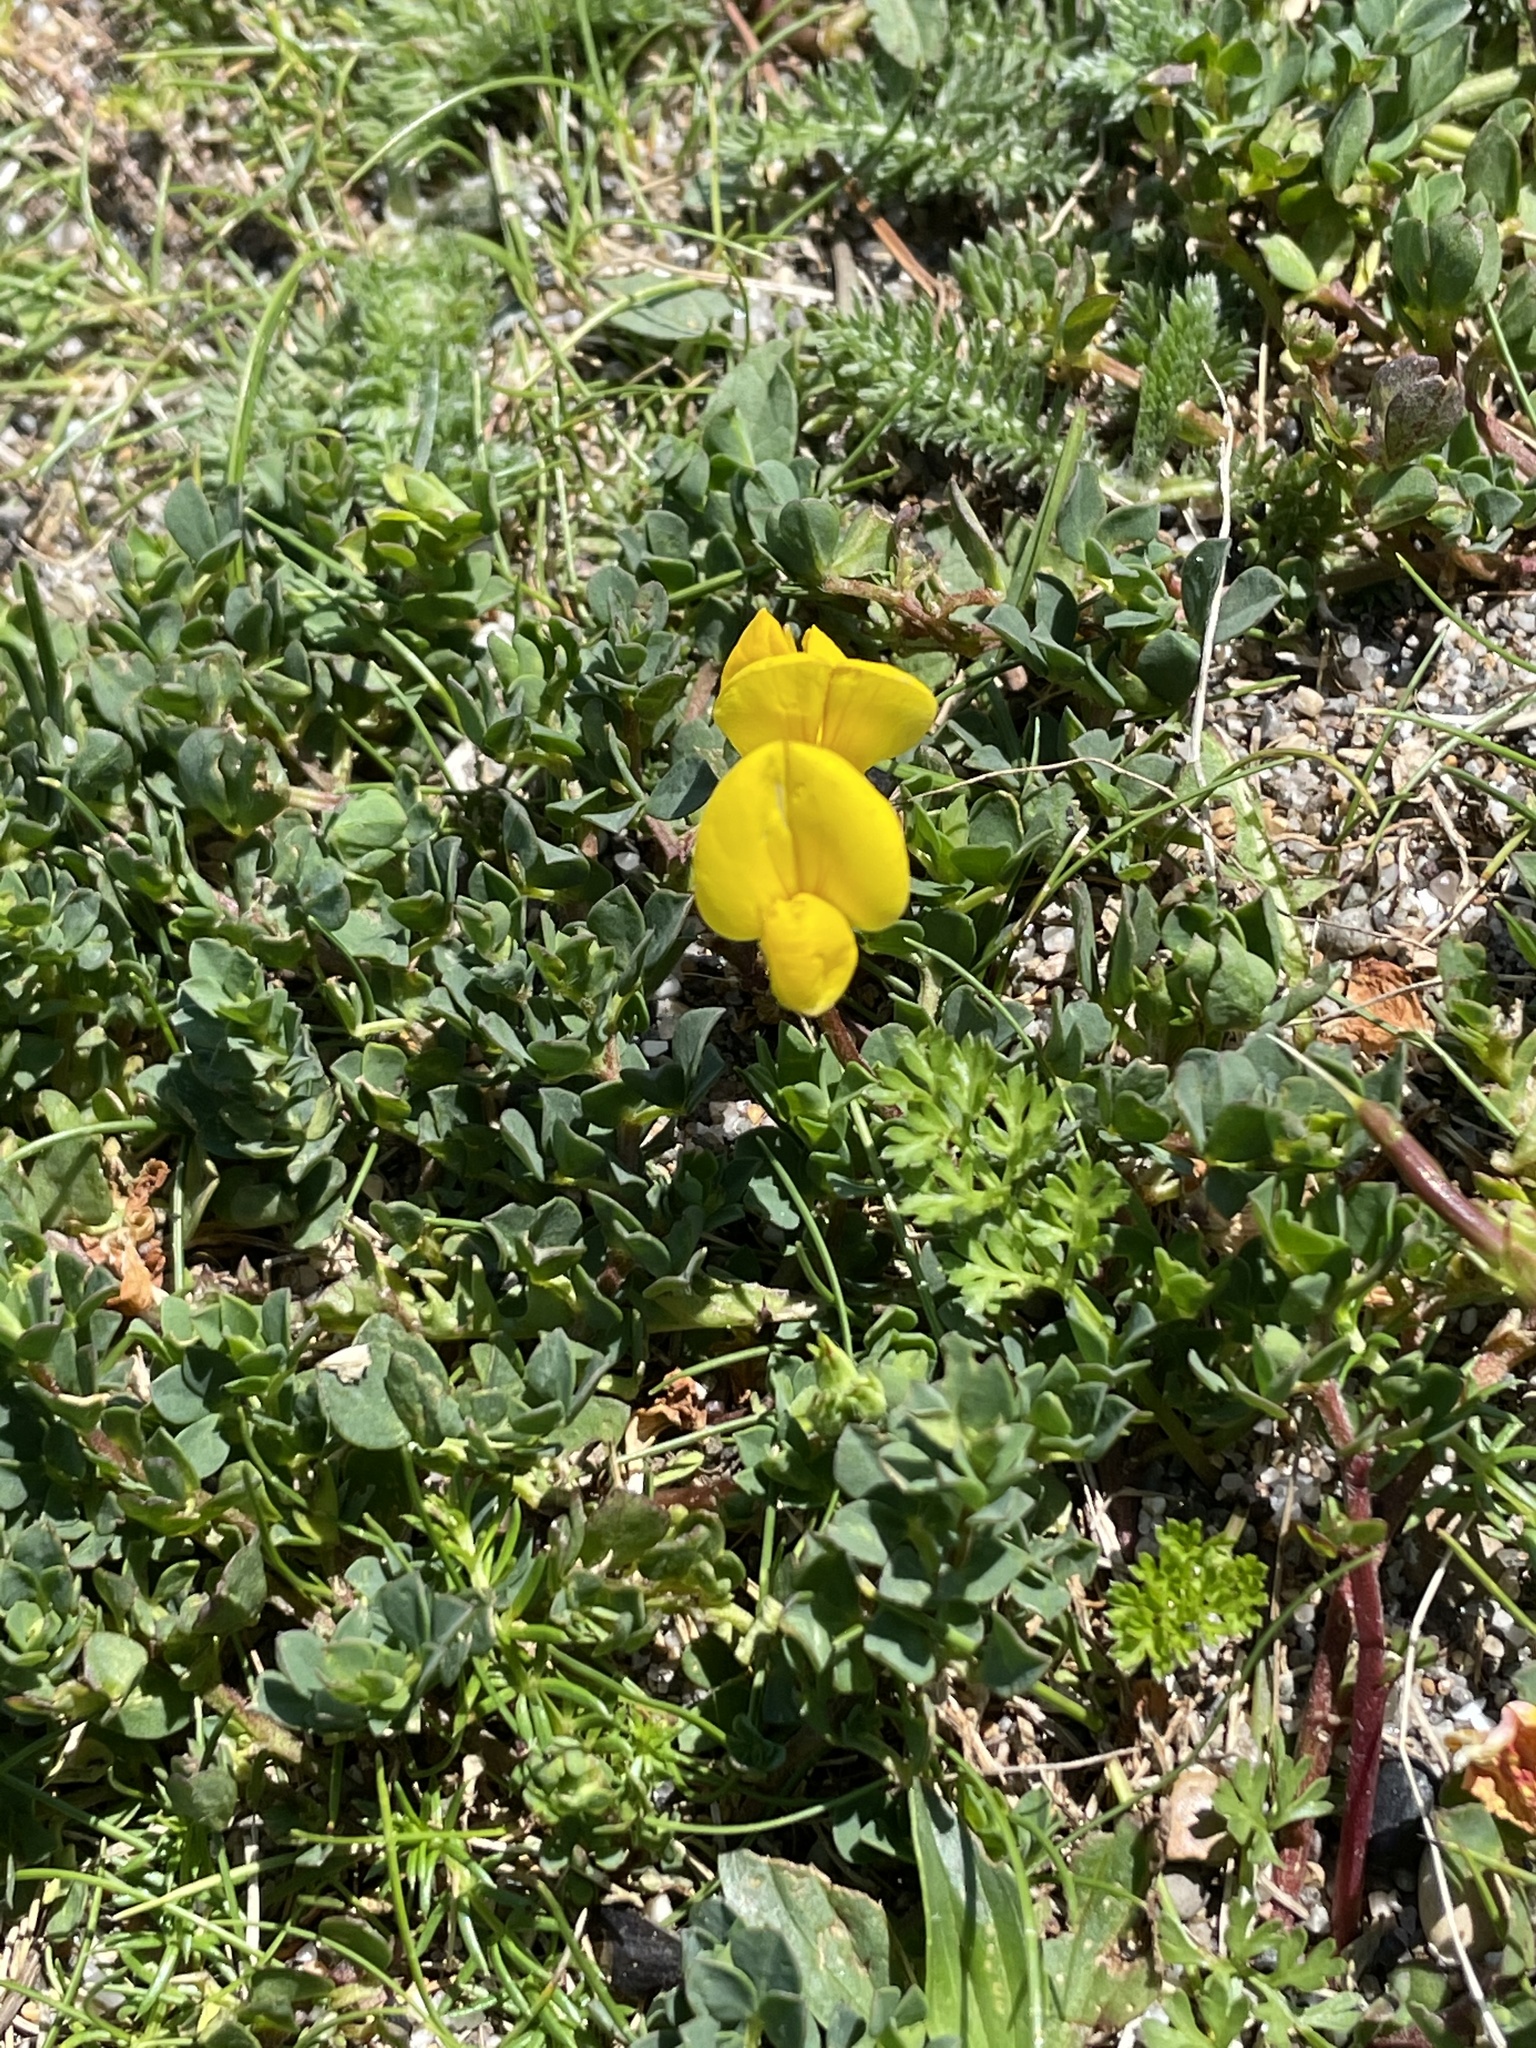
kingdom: Plantae
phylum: Tracheophyta
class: Magnoliopsida
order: Fabales
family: Fabaceae
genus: Lotus
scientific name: Lotus corniculatus
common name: Common bird's-foot-trefoil
